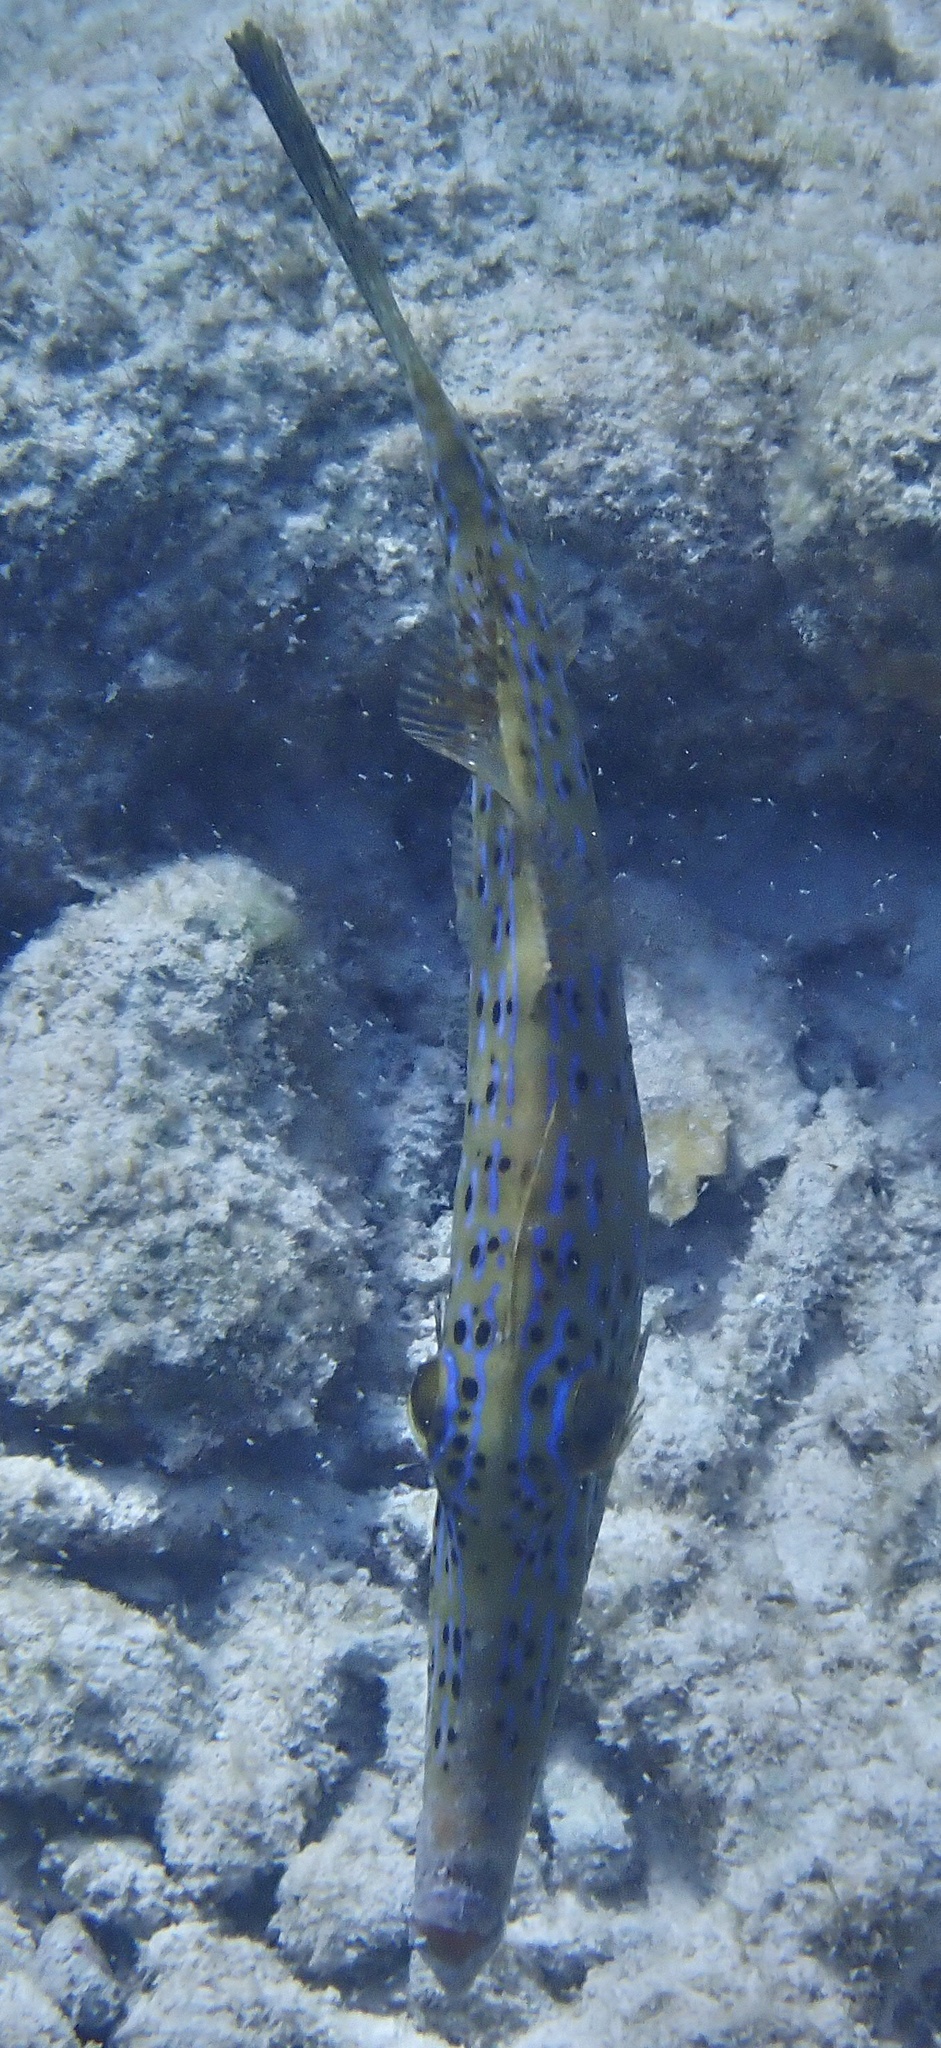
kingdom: Animalia
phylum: Chordata
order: Tetraodontiformes
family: Monacanthidae
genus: Aluterus
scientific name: Aluterus scriptus
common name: Scribbled leatherjacket filefish
